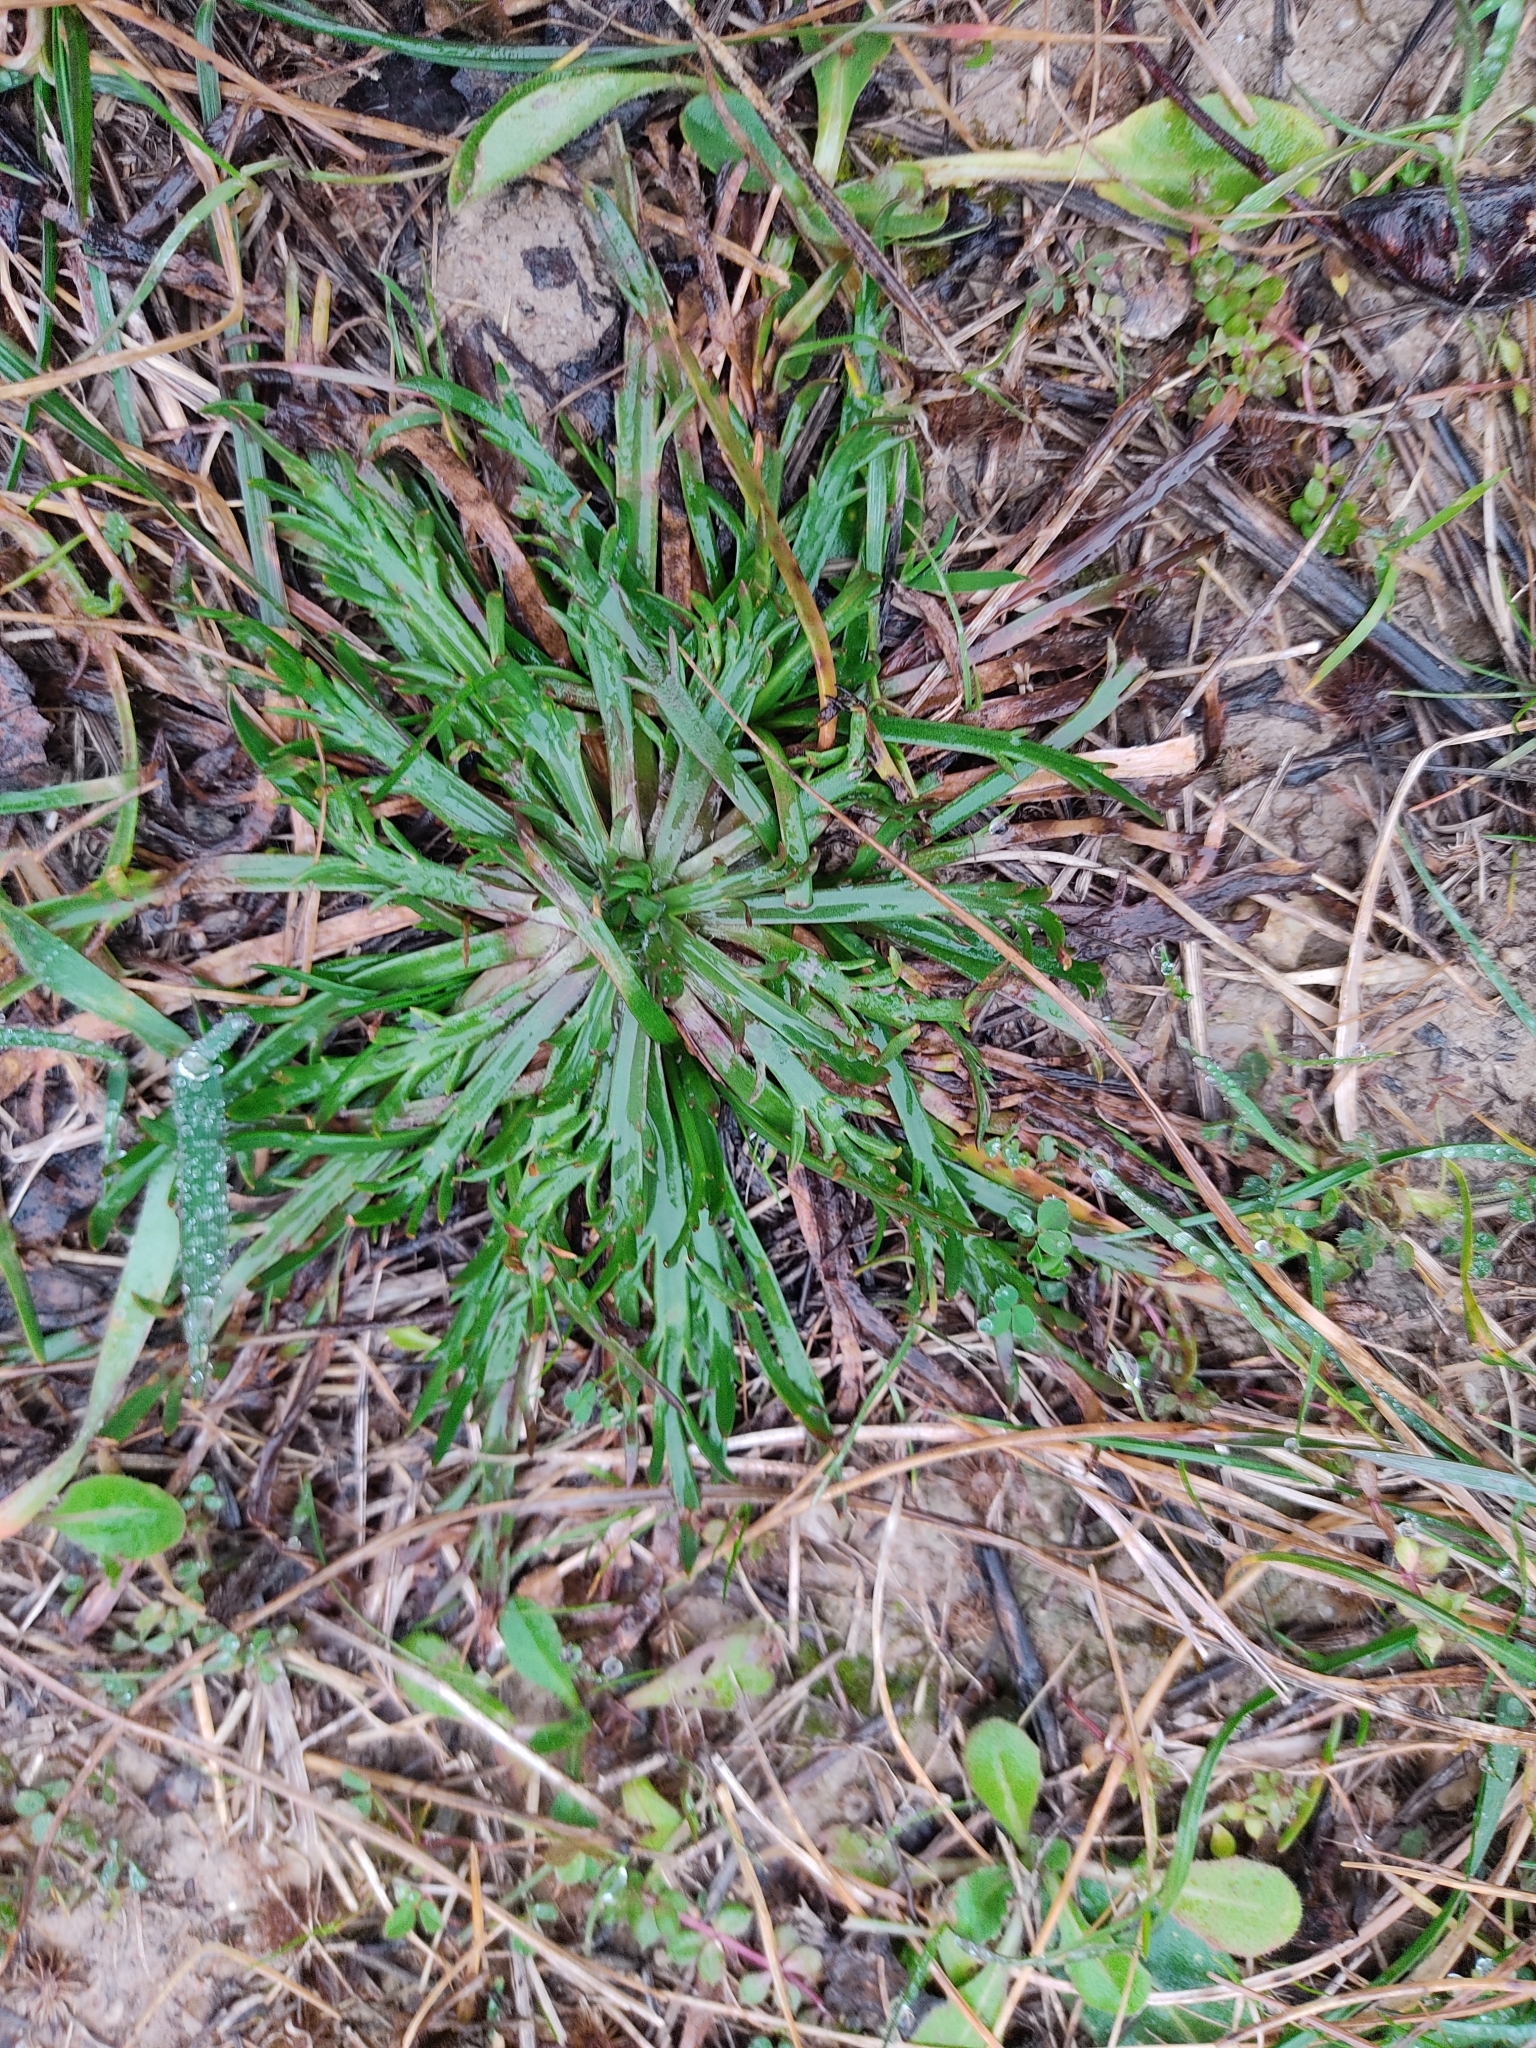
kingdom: Plantae
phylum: Tracheophyta
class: Magnoliopsida
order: Lamiales
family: Plantaginaceae
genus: Plantago
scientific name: Plantago coronopus
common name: Buck's-horn plantain
